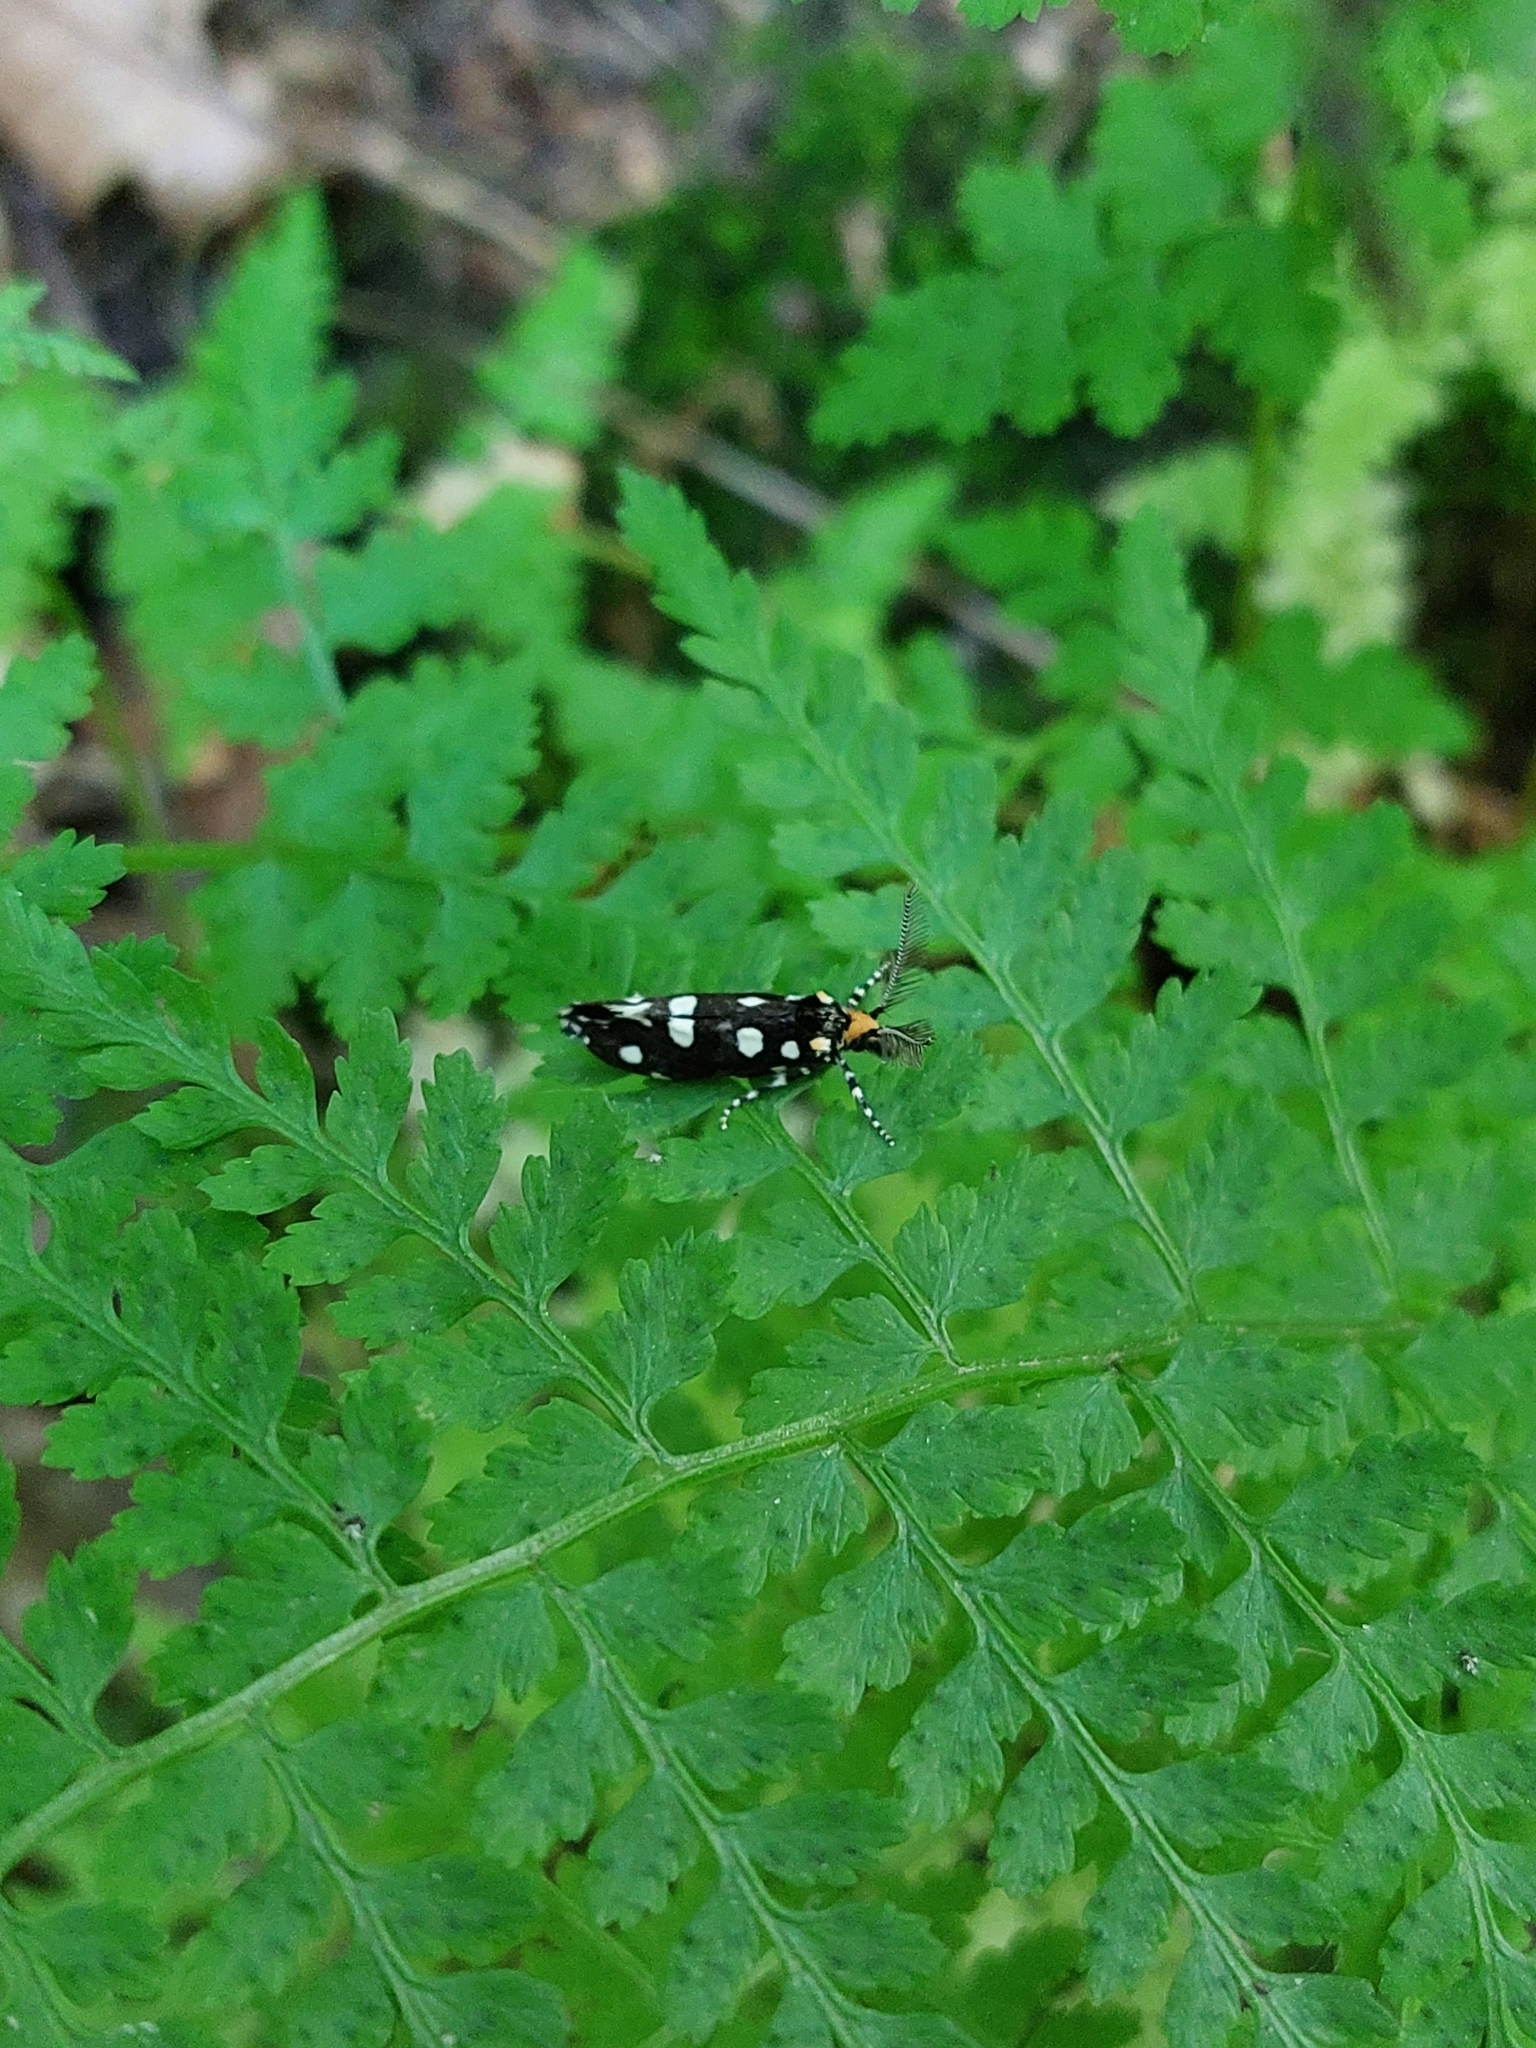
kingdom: Animalia
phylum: Arthropoda
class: Insecta
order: Lepidoptera
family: Tineidae
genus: Euplocamus
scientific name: Euplocamus anthracinalis
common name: Black clothes
